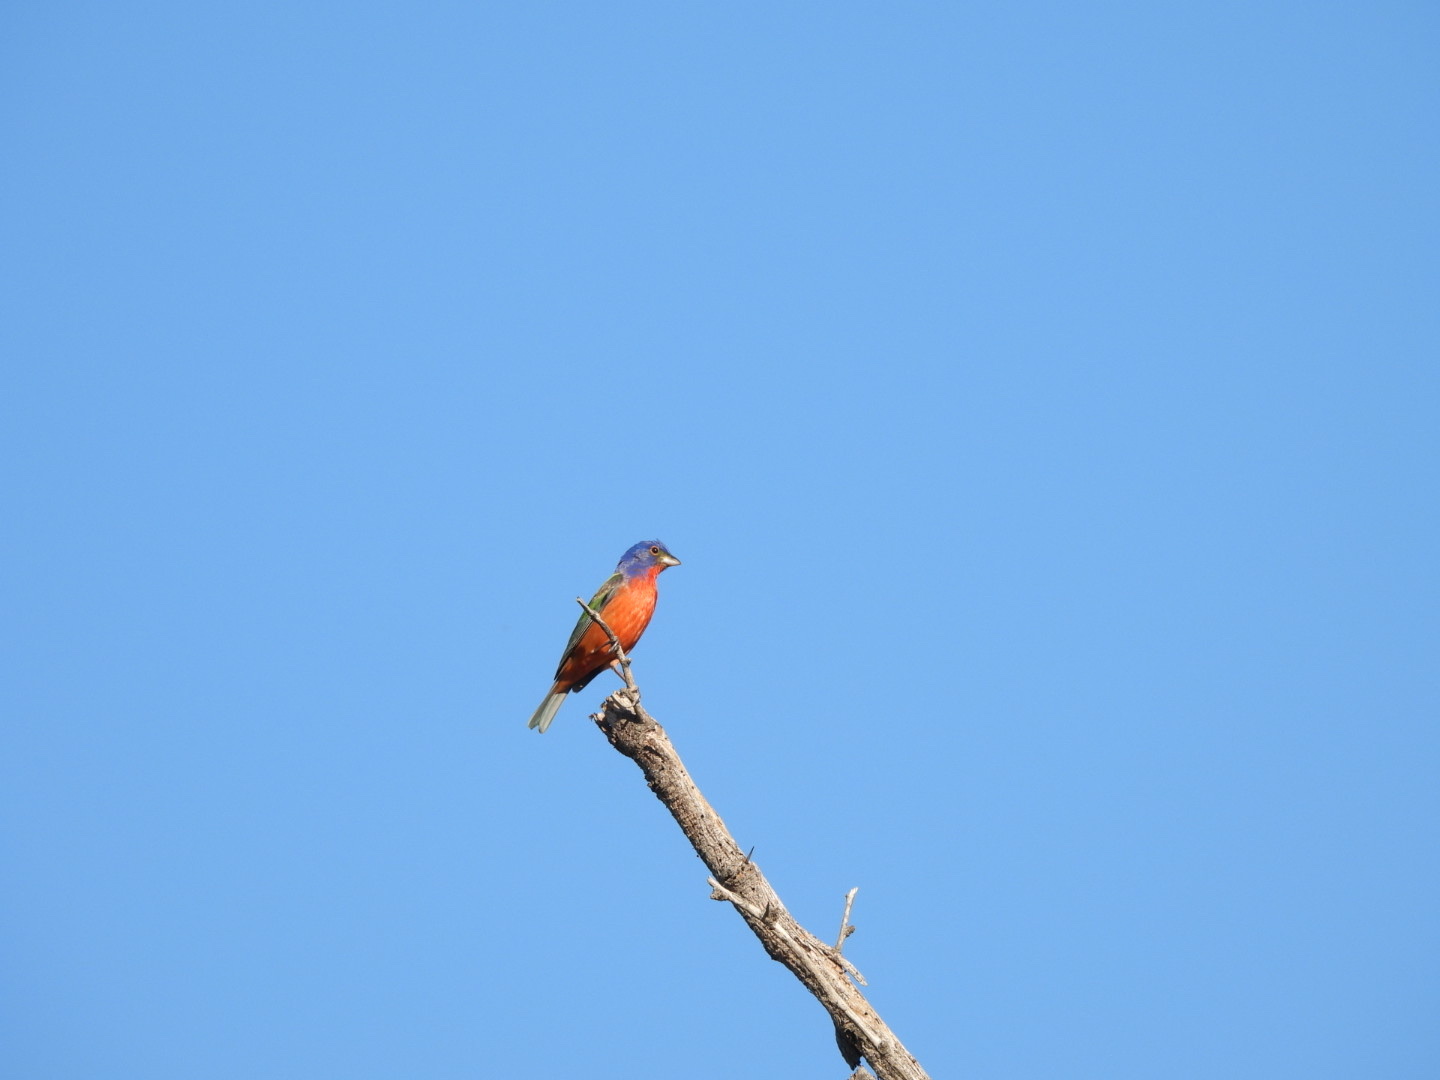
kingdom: Animalia
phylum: Chordata
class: Aves
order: Passeriformes
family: Cardinalidae
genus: Passerina
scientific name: Passerina ciris
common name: Painted bunting
